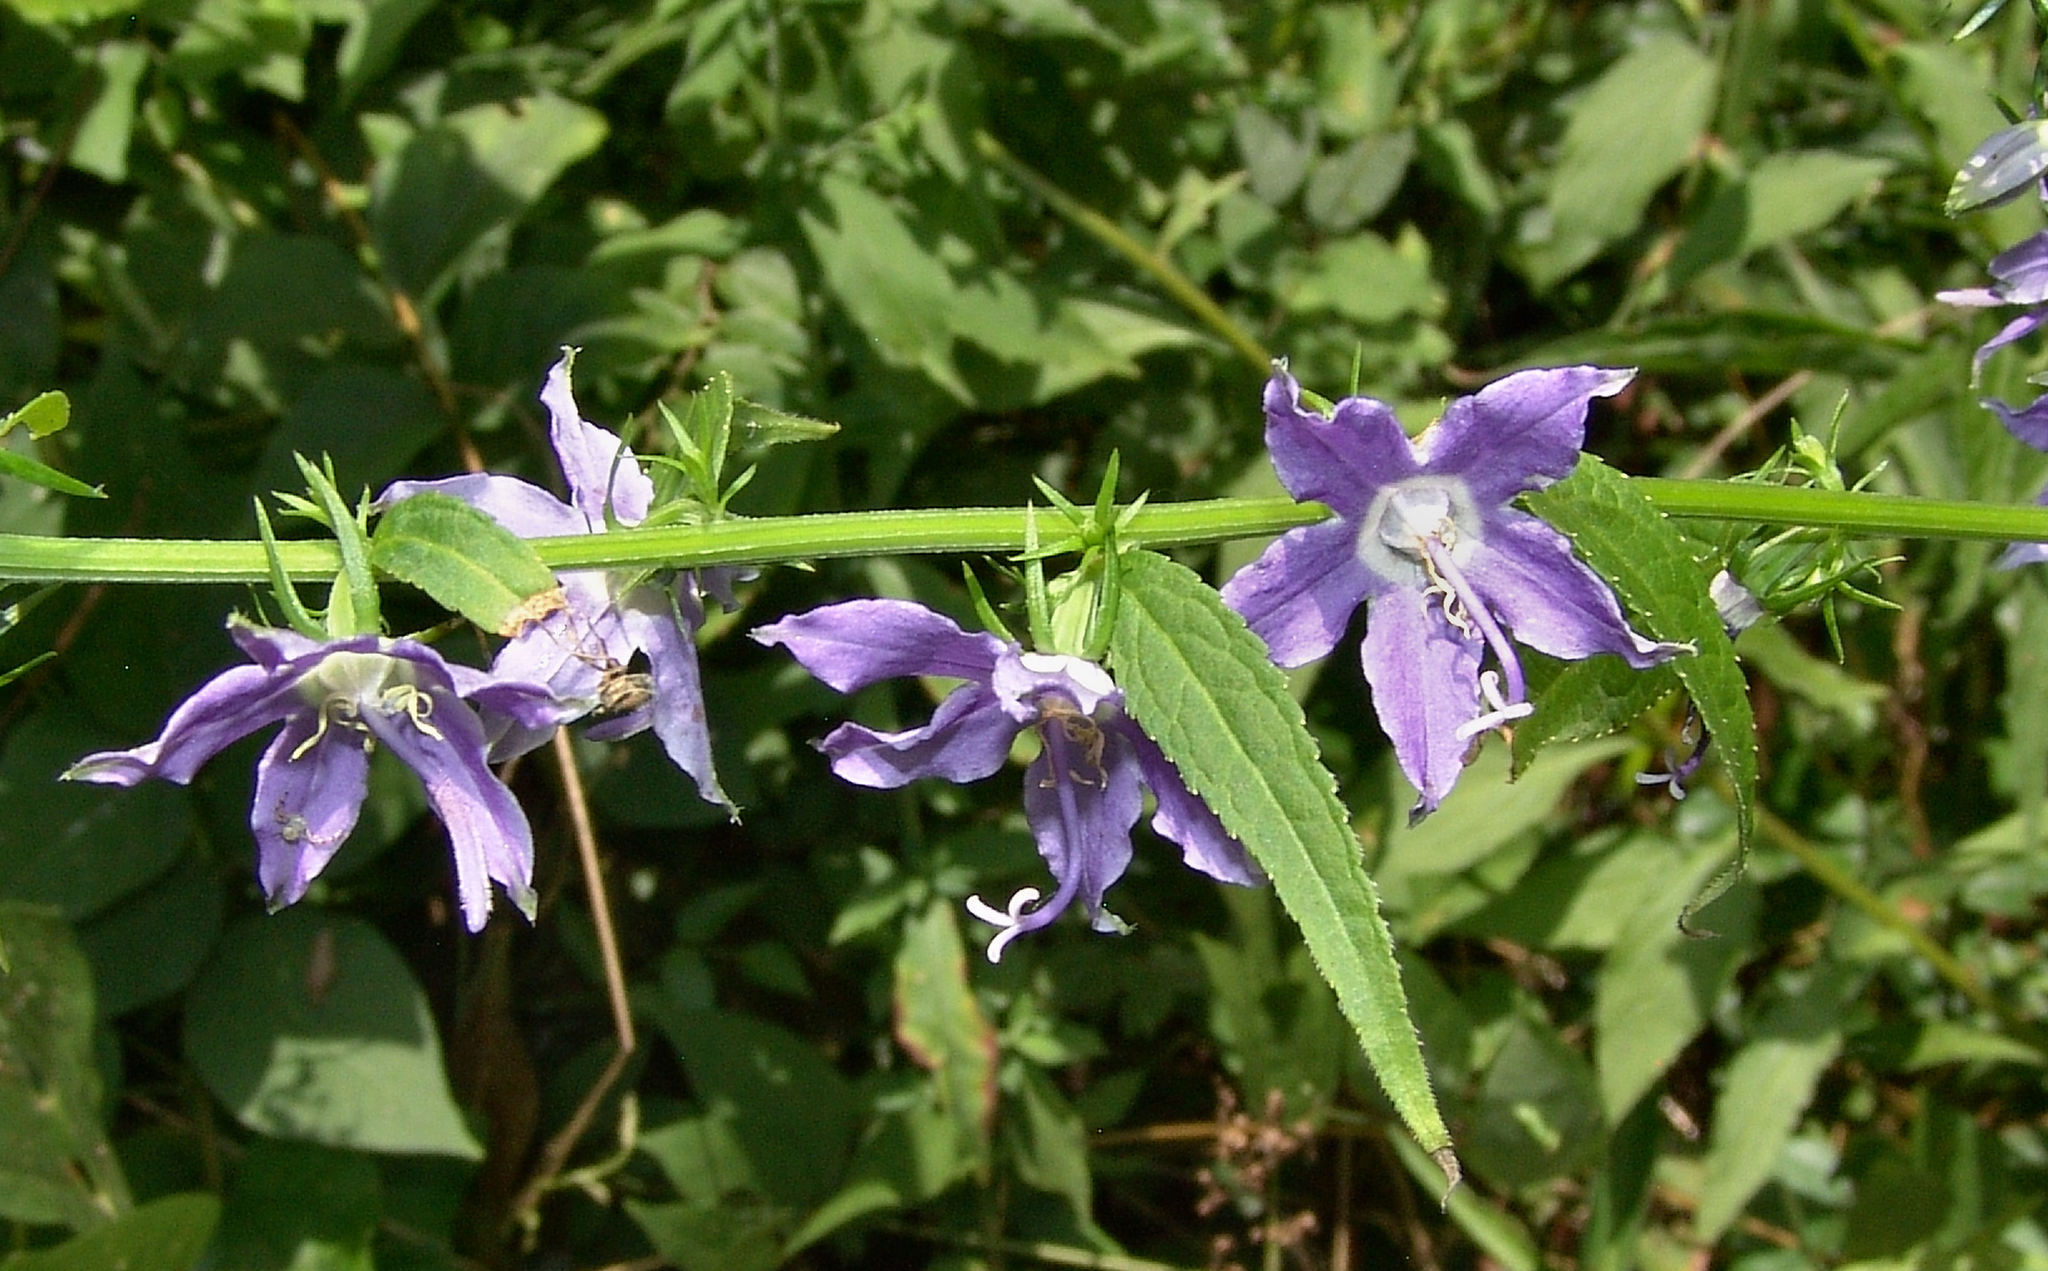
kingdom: Plantae
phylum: Tracheophyta
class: Magnoliopsida
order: Asterales
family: Campanulaceae
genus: Campanulastrum
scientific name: Campanulastrum americanum
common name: American bellflower
